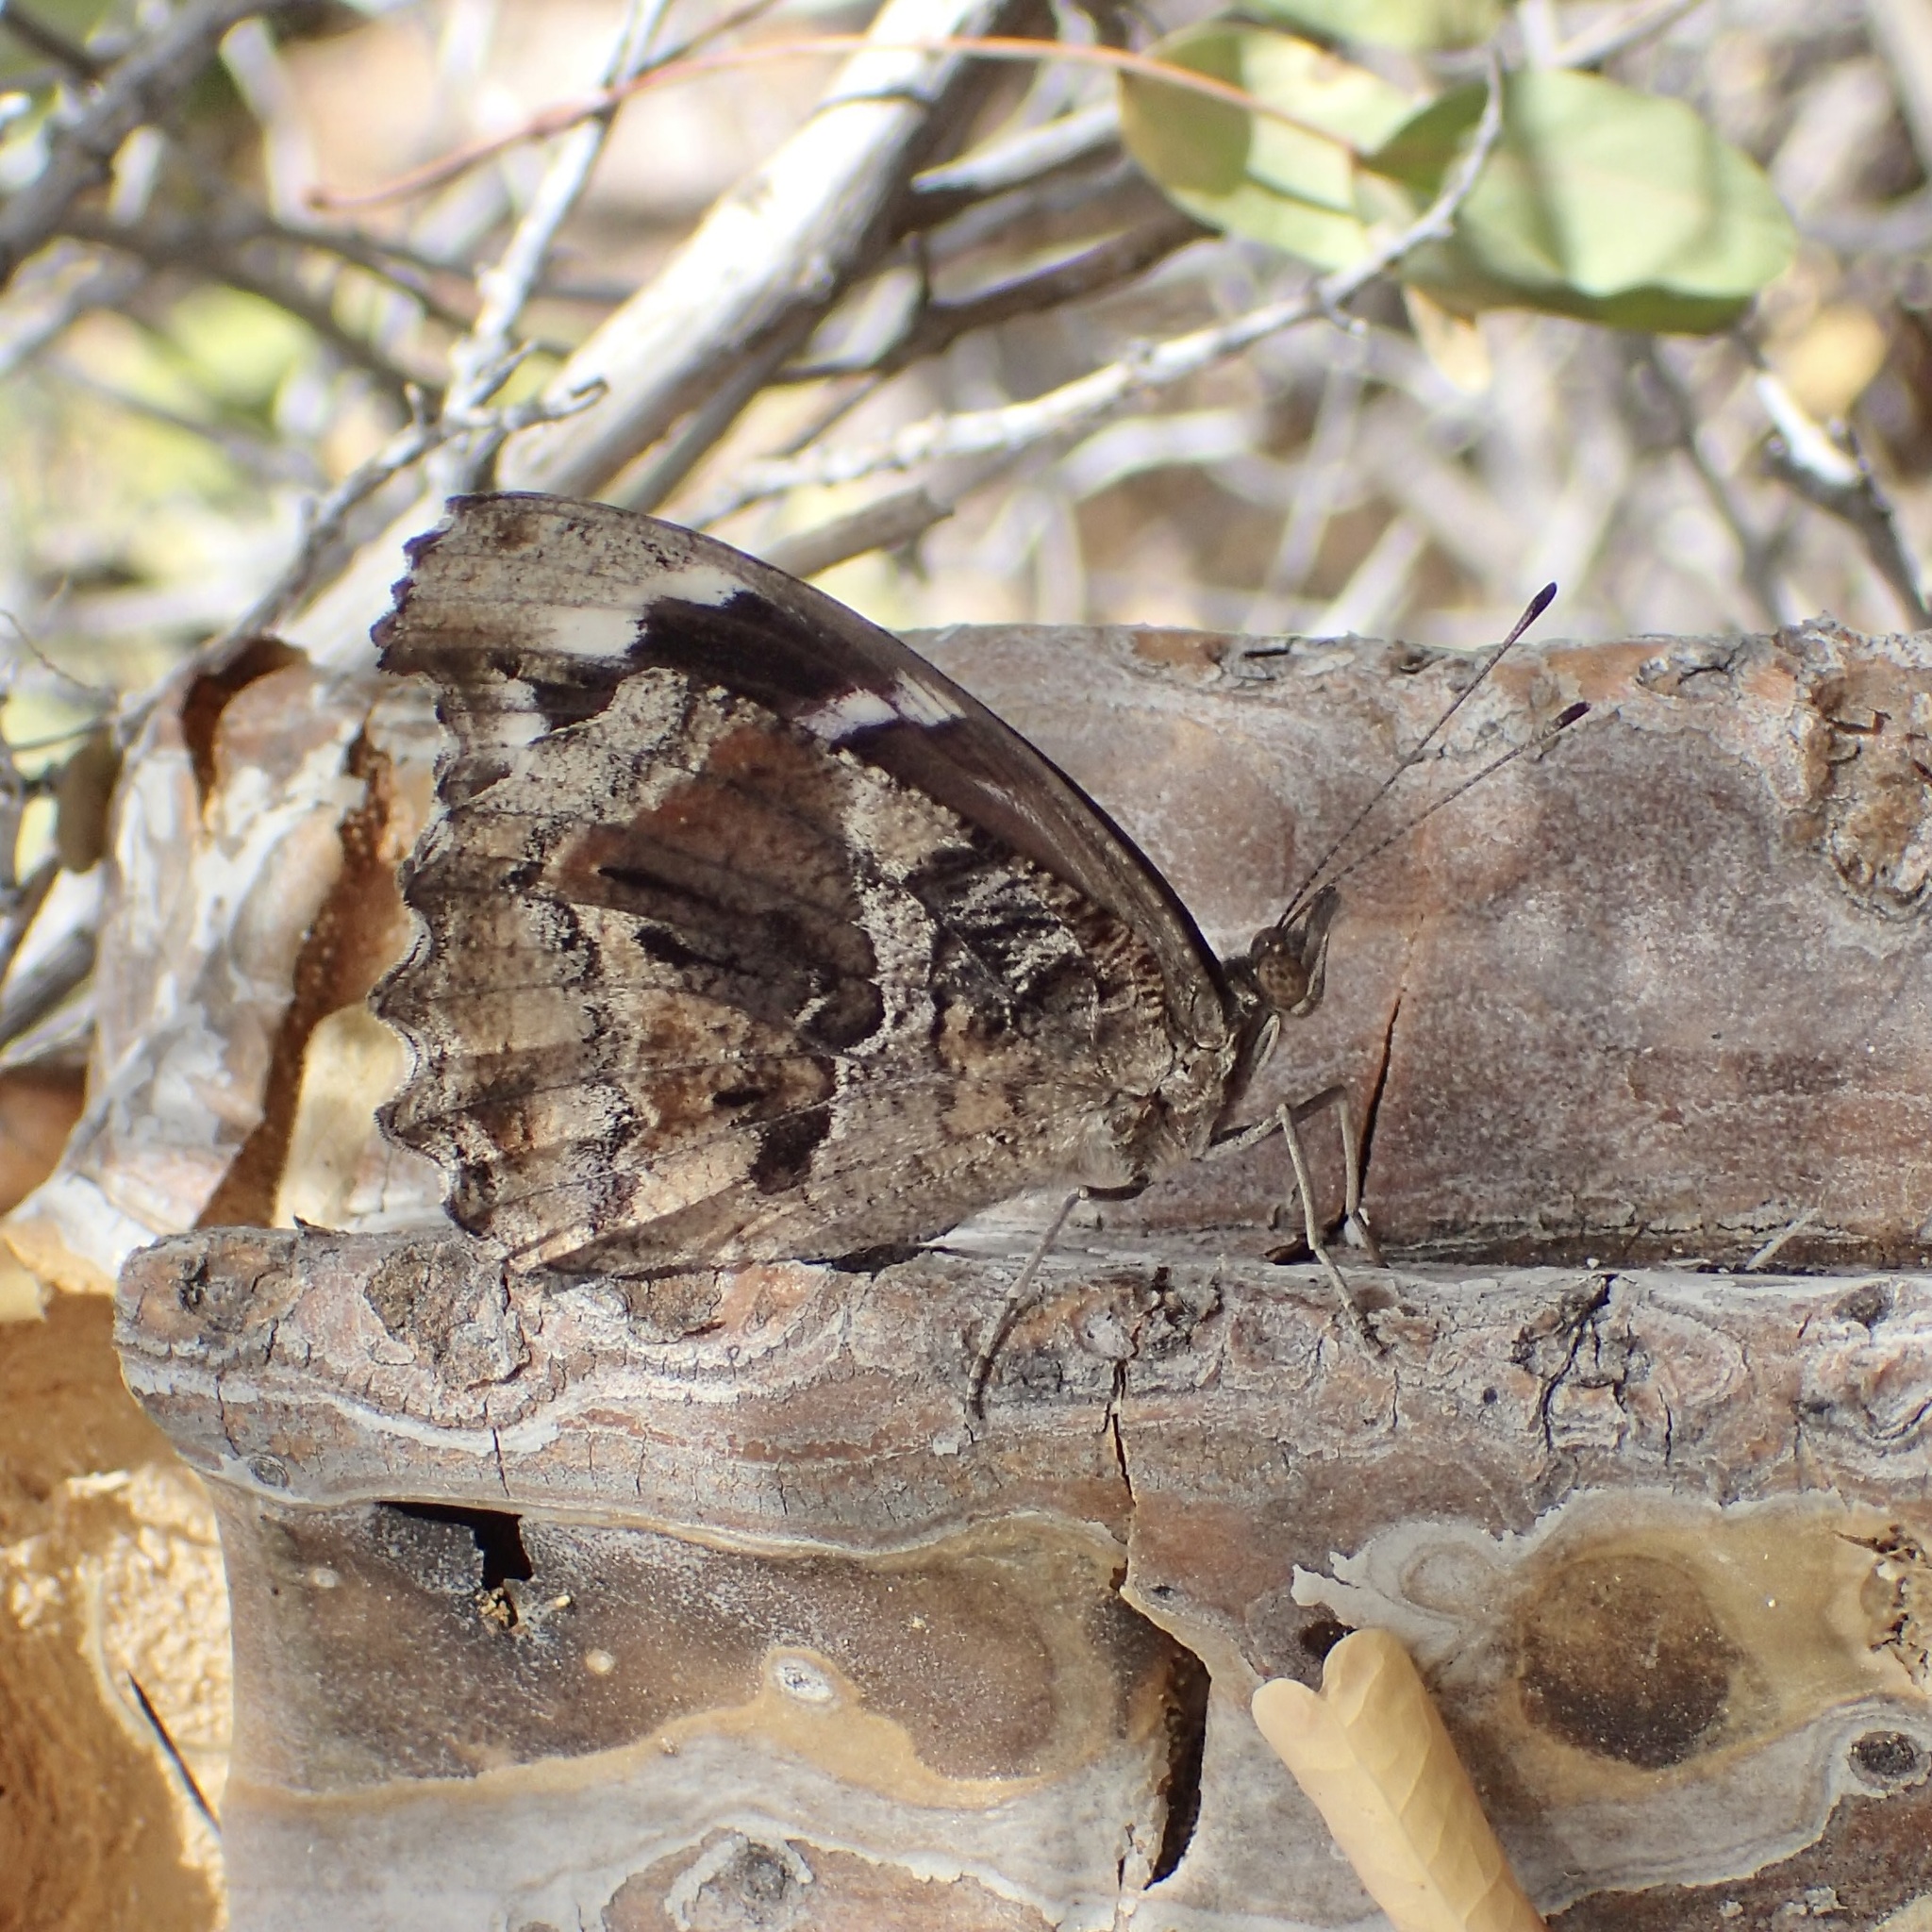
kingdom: Animalia
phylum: Arthropoda
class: Insecta
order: Lepidoptera
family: Nymphalidae
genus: Myscelia
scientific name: Myscelia cyananthe
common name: Blackened bluewing
